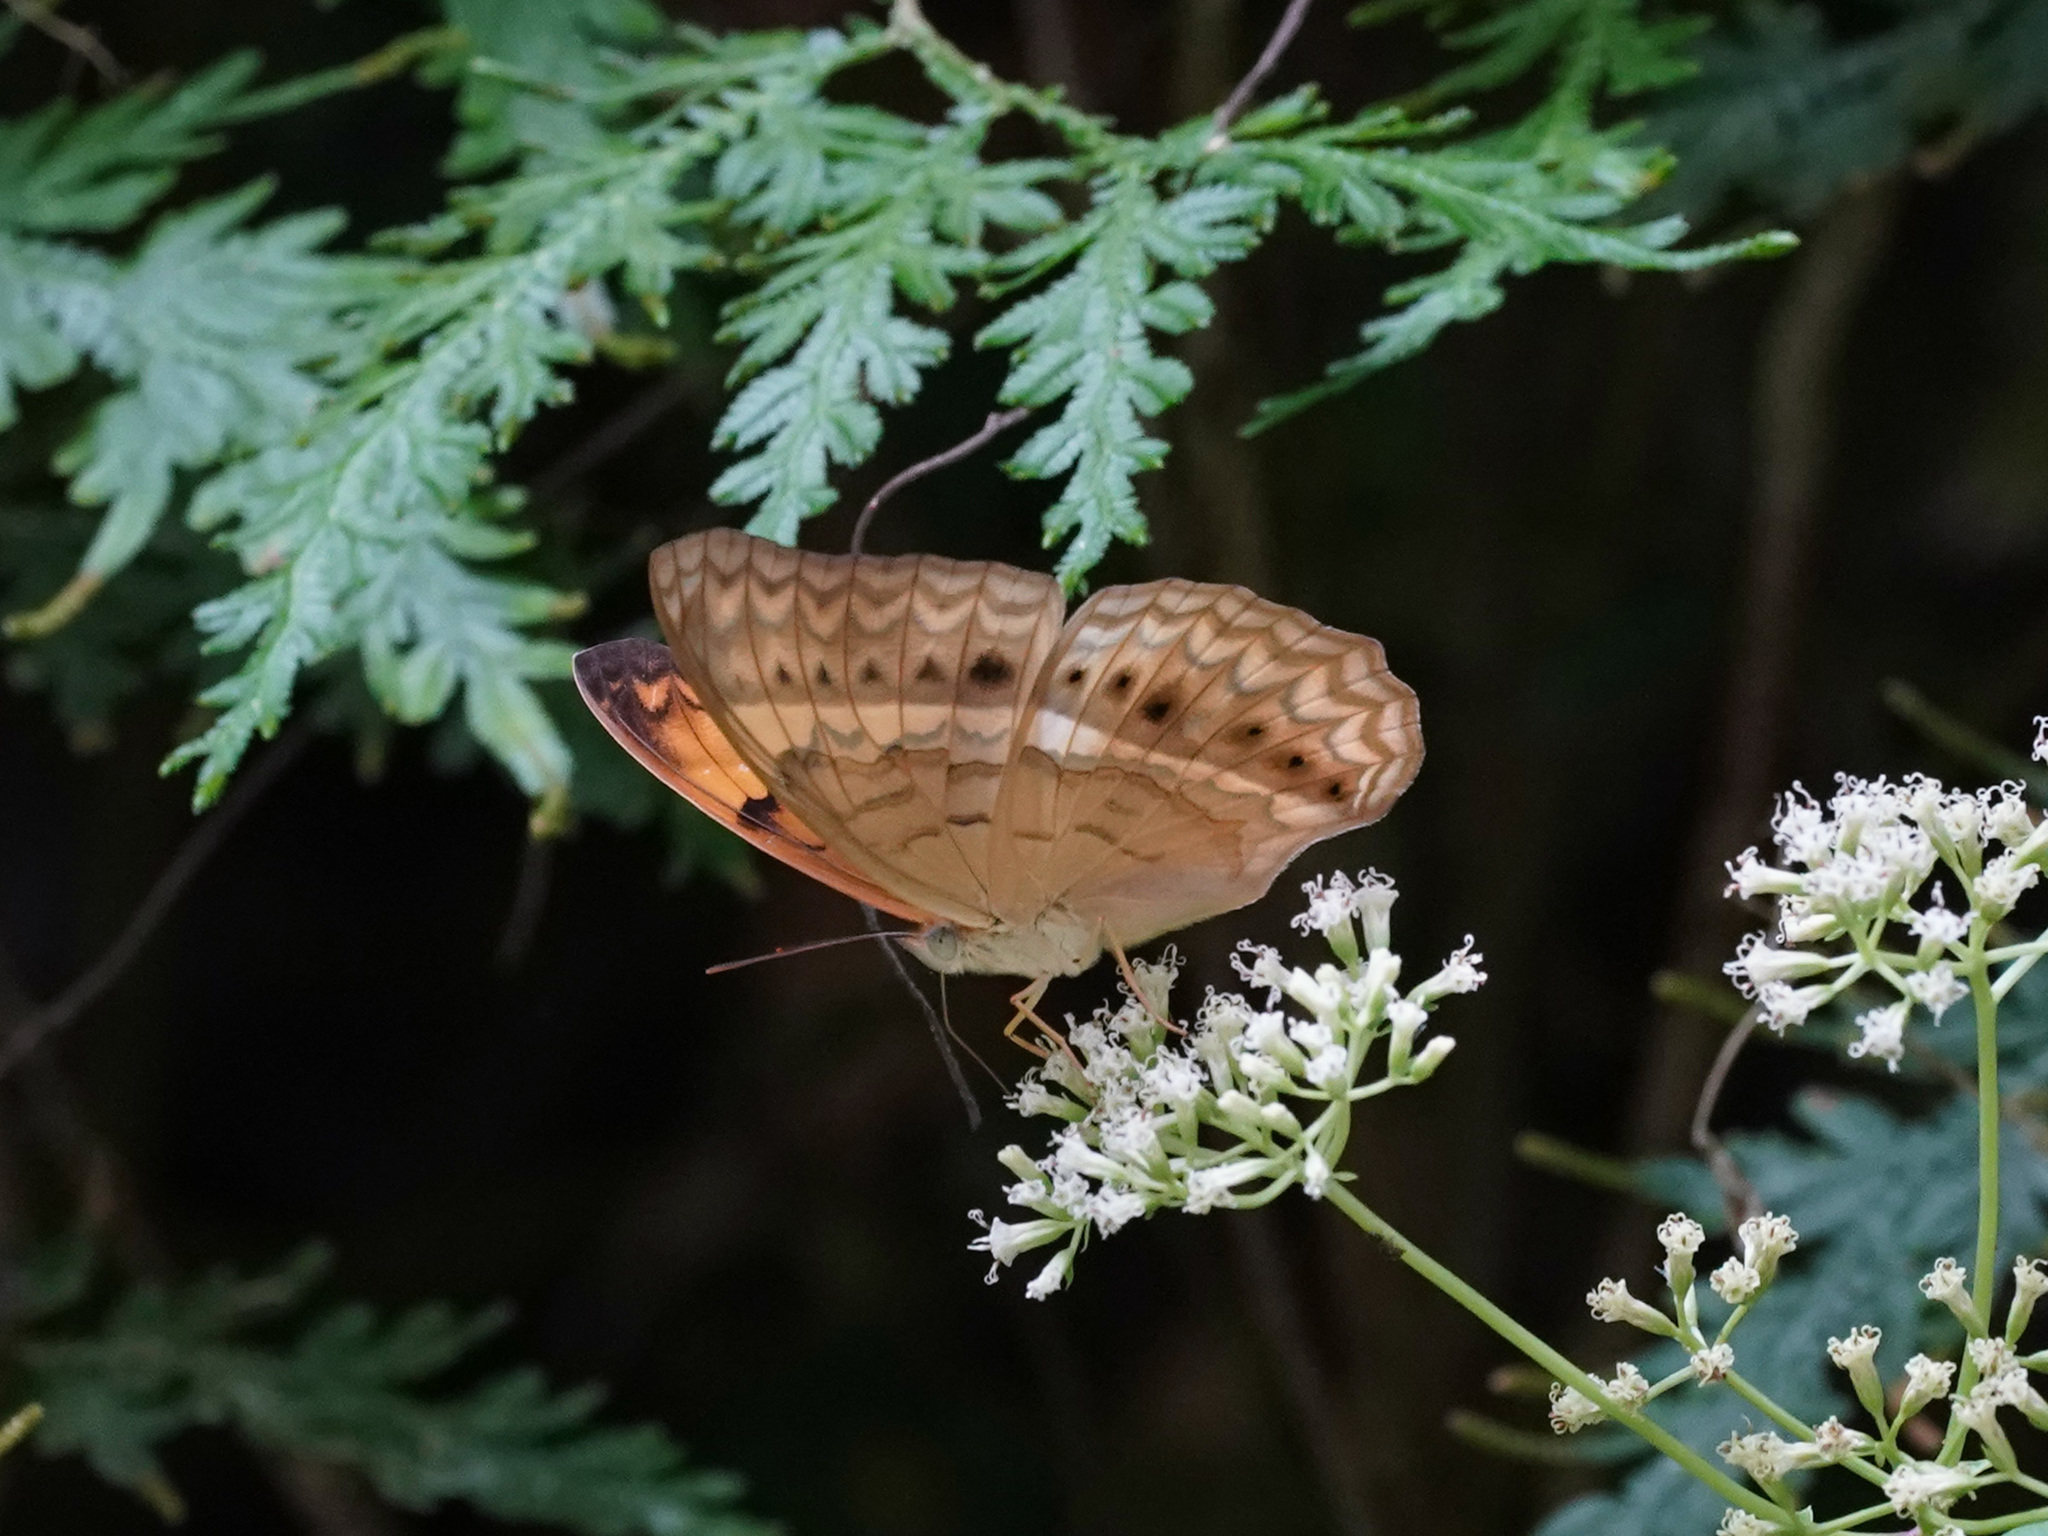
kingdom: Animalia
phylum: Arthropoda
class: Insecta
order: Lepidoptera
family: Nymphalidae
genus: Cirrochroa
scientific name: Cirrochroa tyche
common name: Common yeoman
